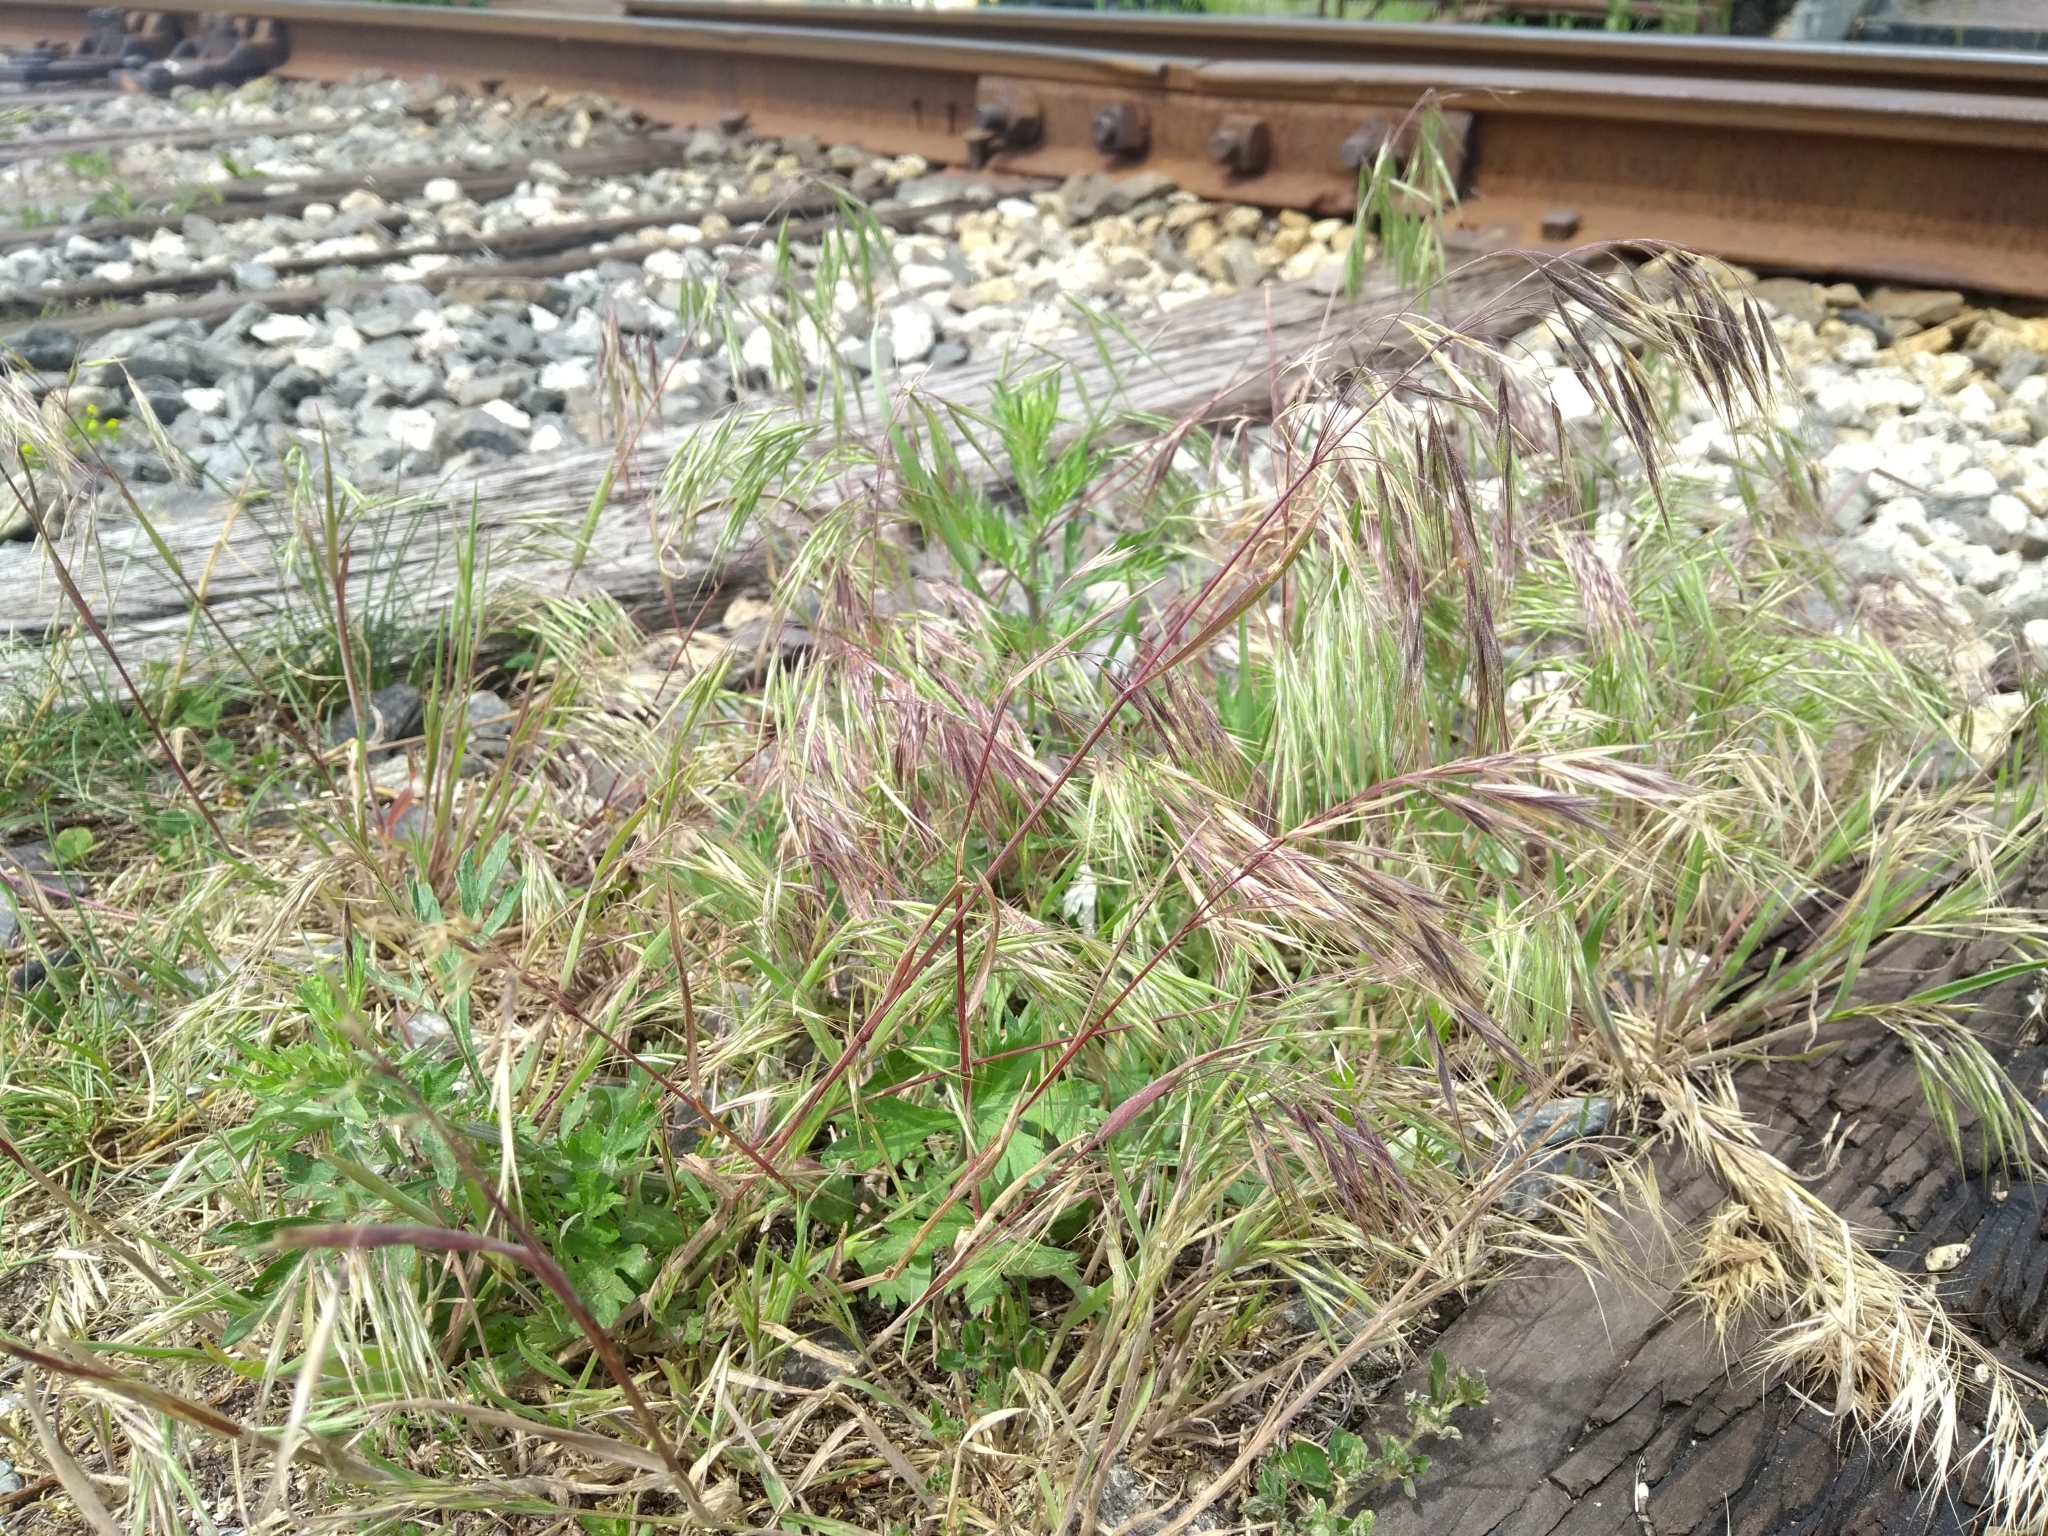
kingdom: Plantae
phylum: Tracheophyta
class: Liliopsida
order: Poales
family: Poaceae
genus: Bromus
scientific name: Bromus tectorum
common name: Cheatgrass
